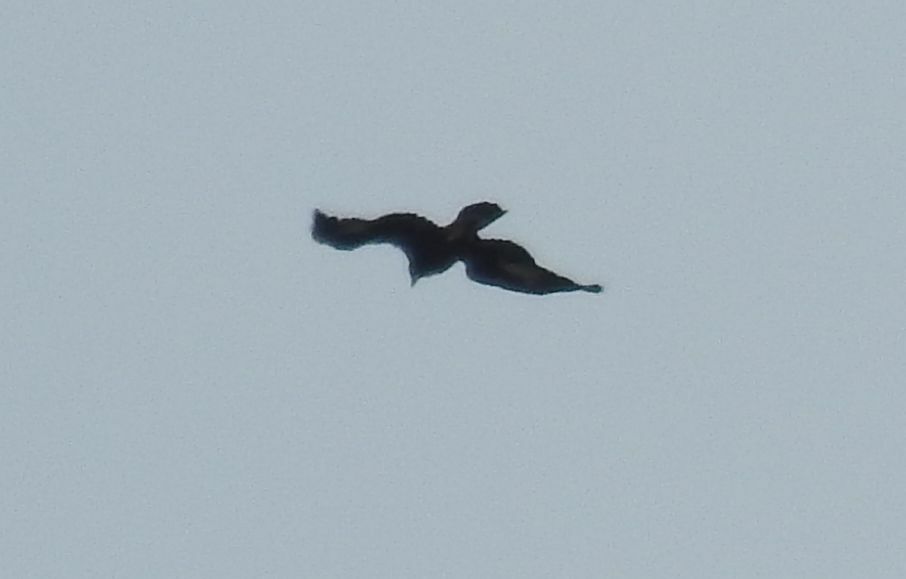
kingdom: Animalia
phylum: Chordata
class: Aves
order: Accipitriformes
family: Accipitridae
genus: Aquila
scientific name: Aquila chrysaetos
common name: Golden eagle
